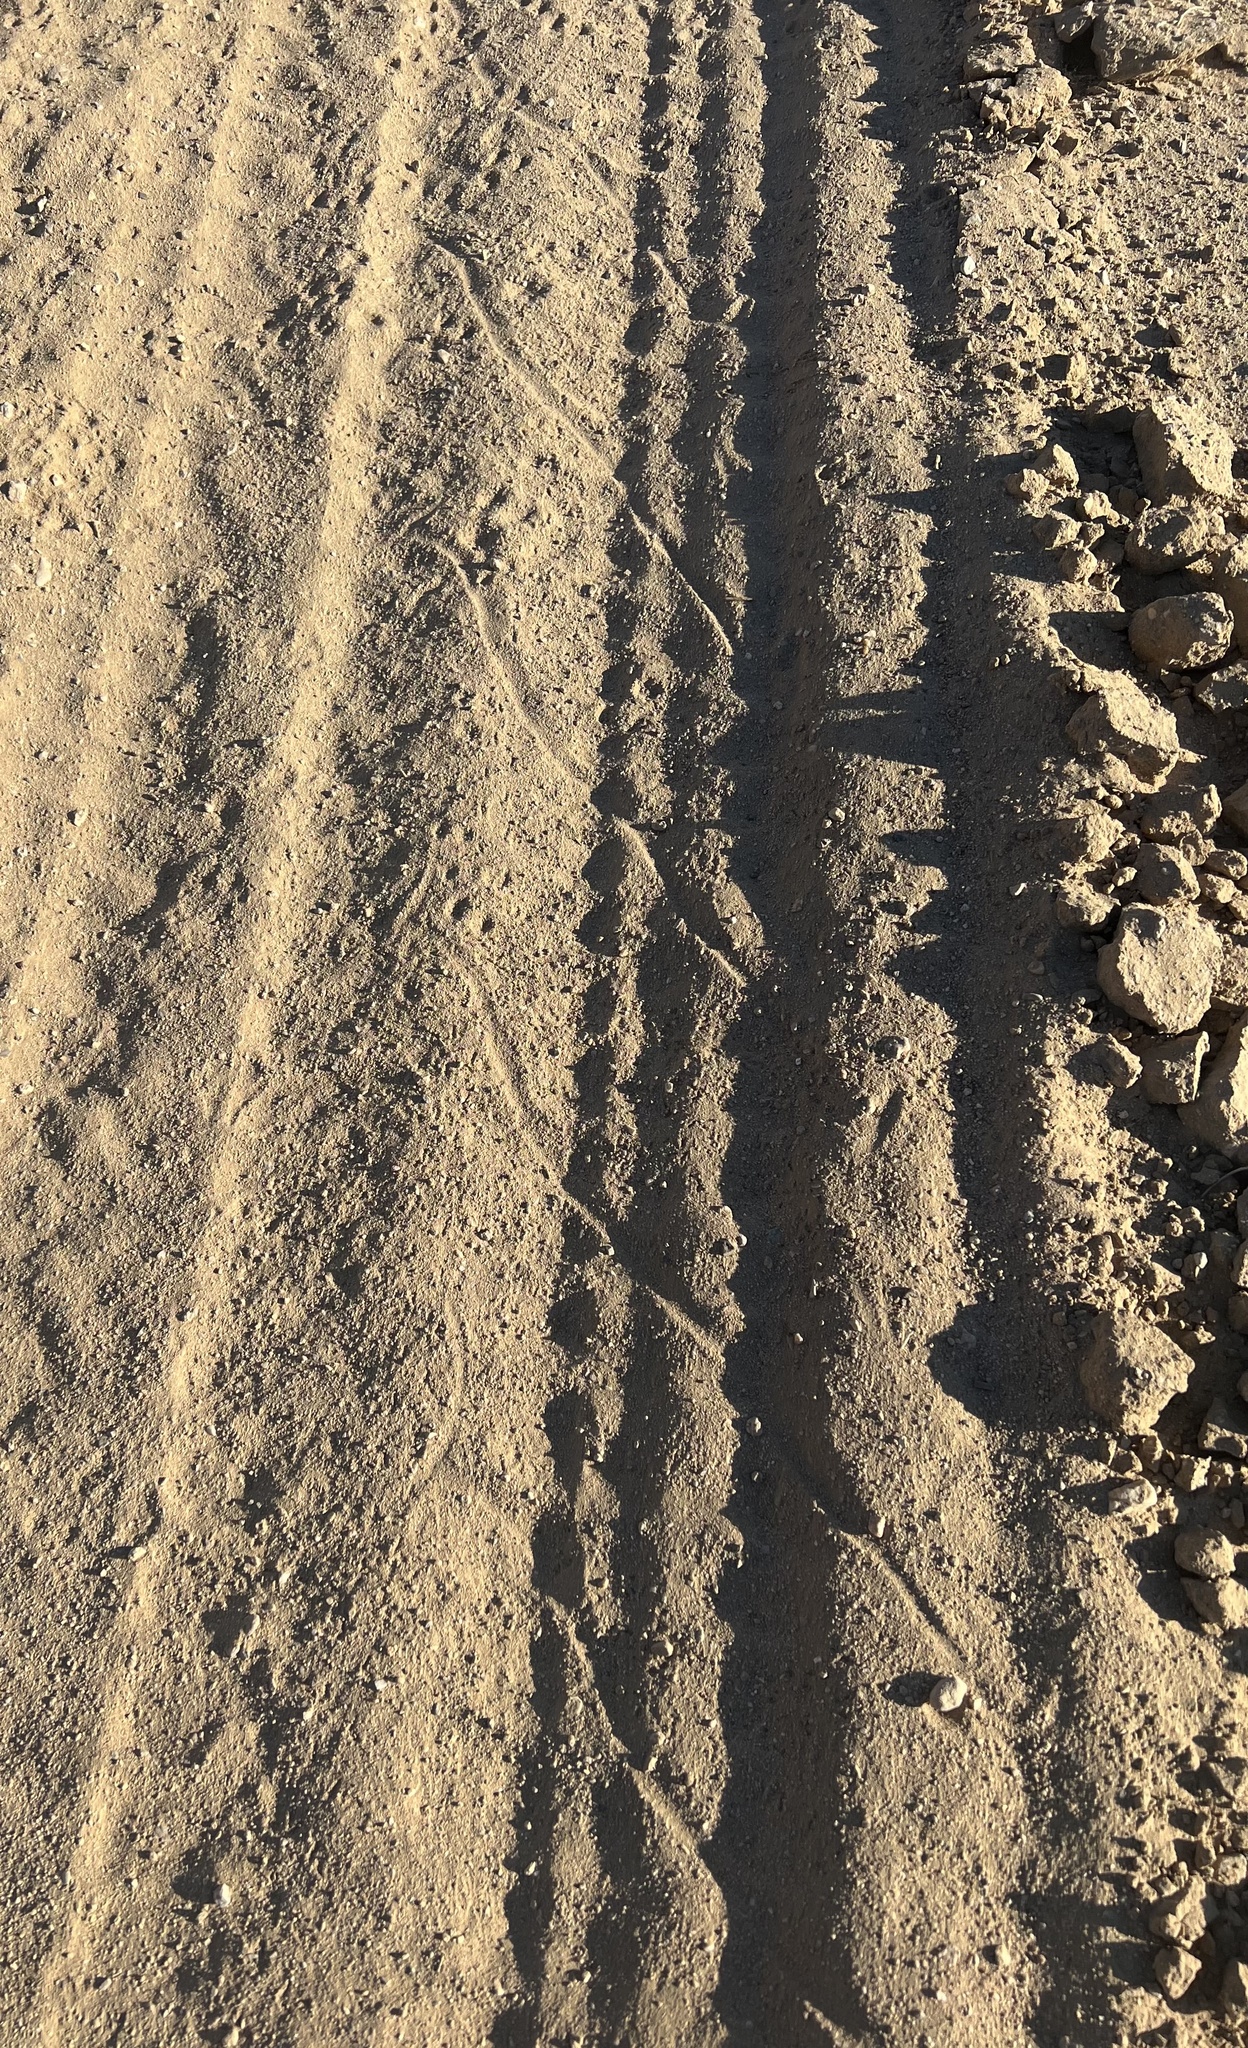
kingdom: Animalia
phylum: Chordata
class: Squamata
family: Viperidae
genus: Crotalus
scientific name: Crotalus cerastes
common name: Sidewinder
